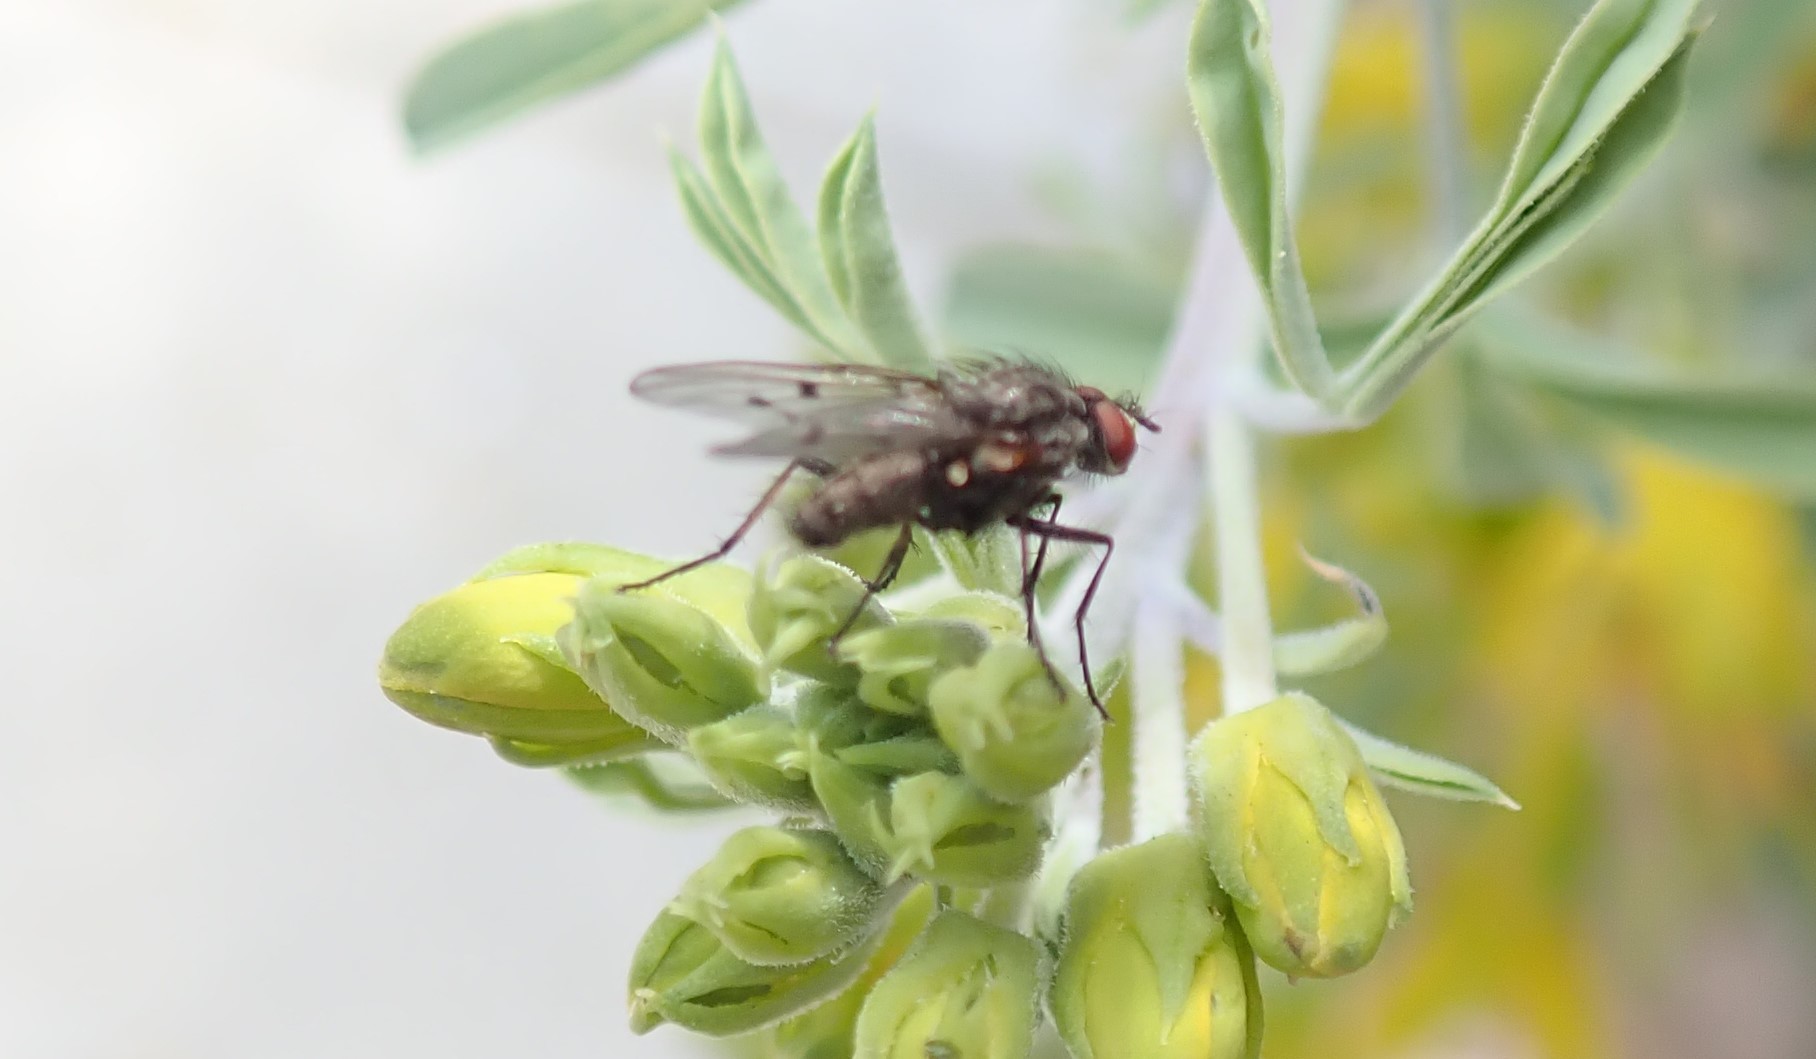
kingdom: Animalia
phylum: Arthropoda
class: Insecta
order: Diptera
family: Anthomyiidae
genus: Anthomyia
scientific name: Anthomyia ochripes
